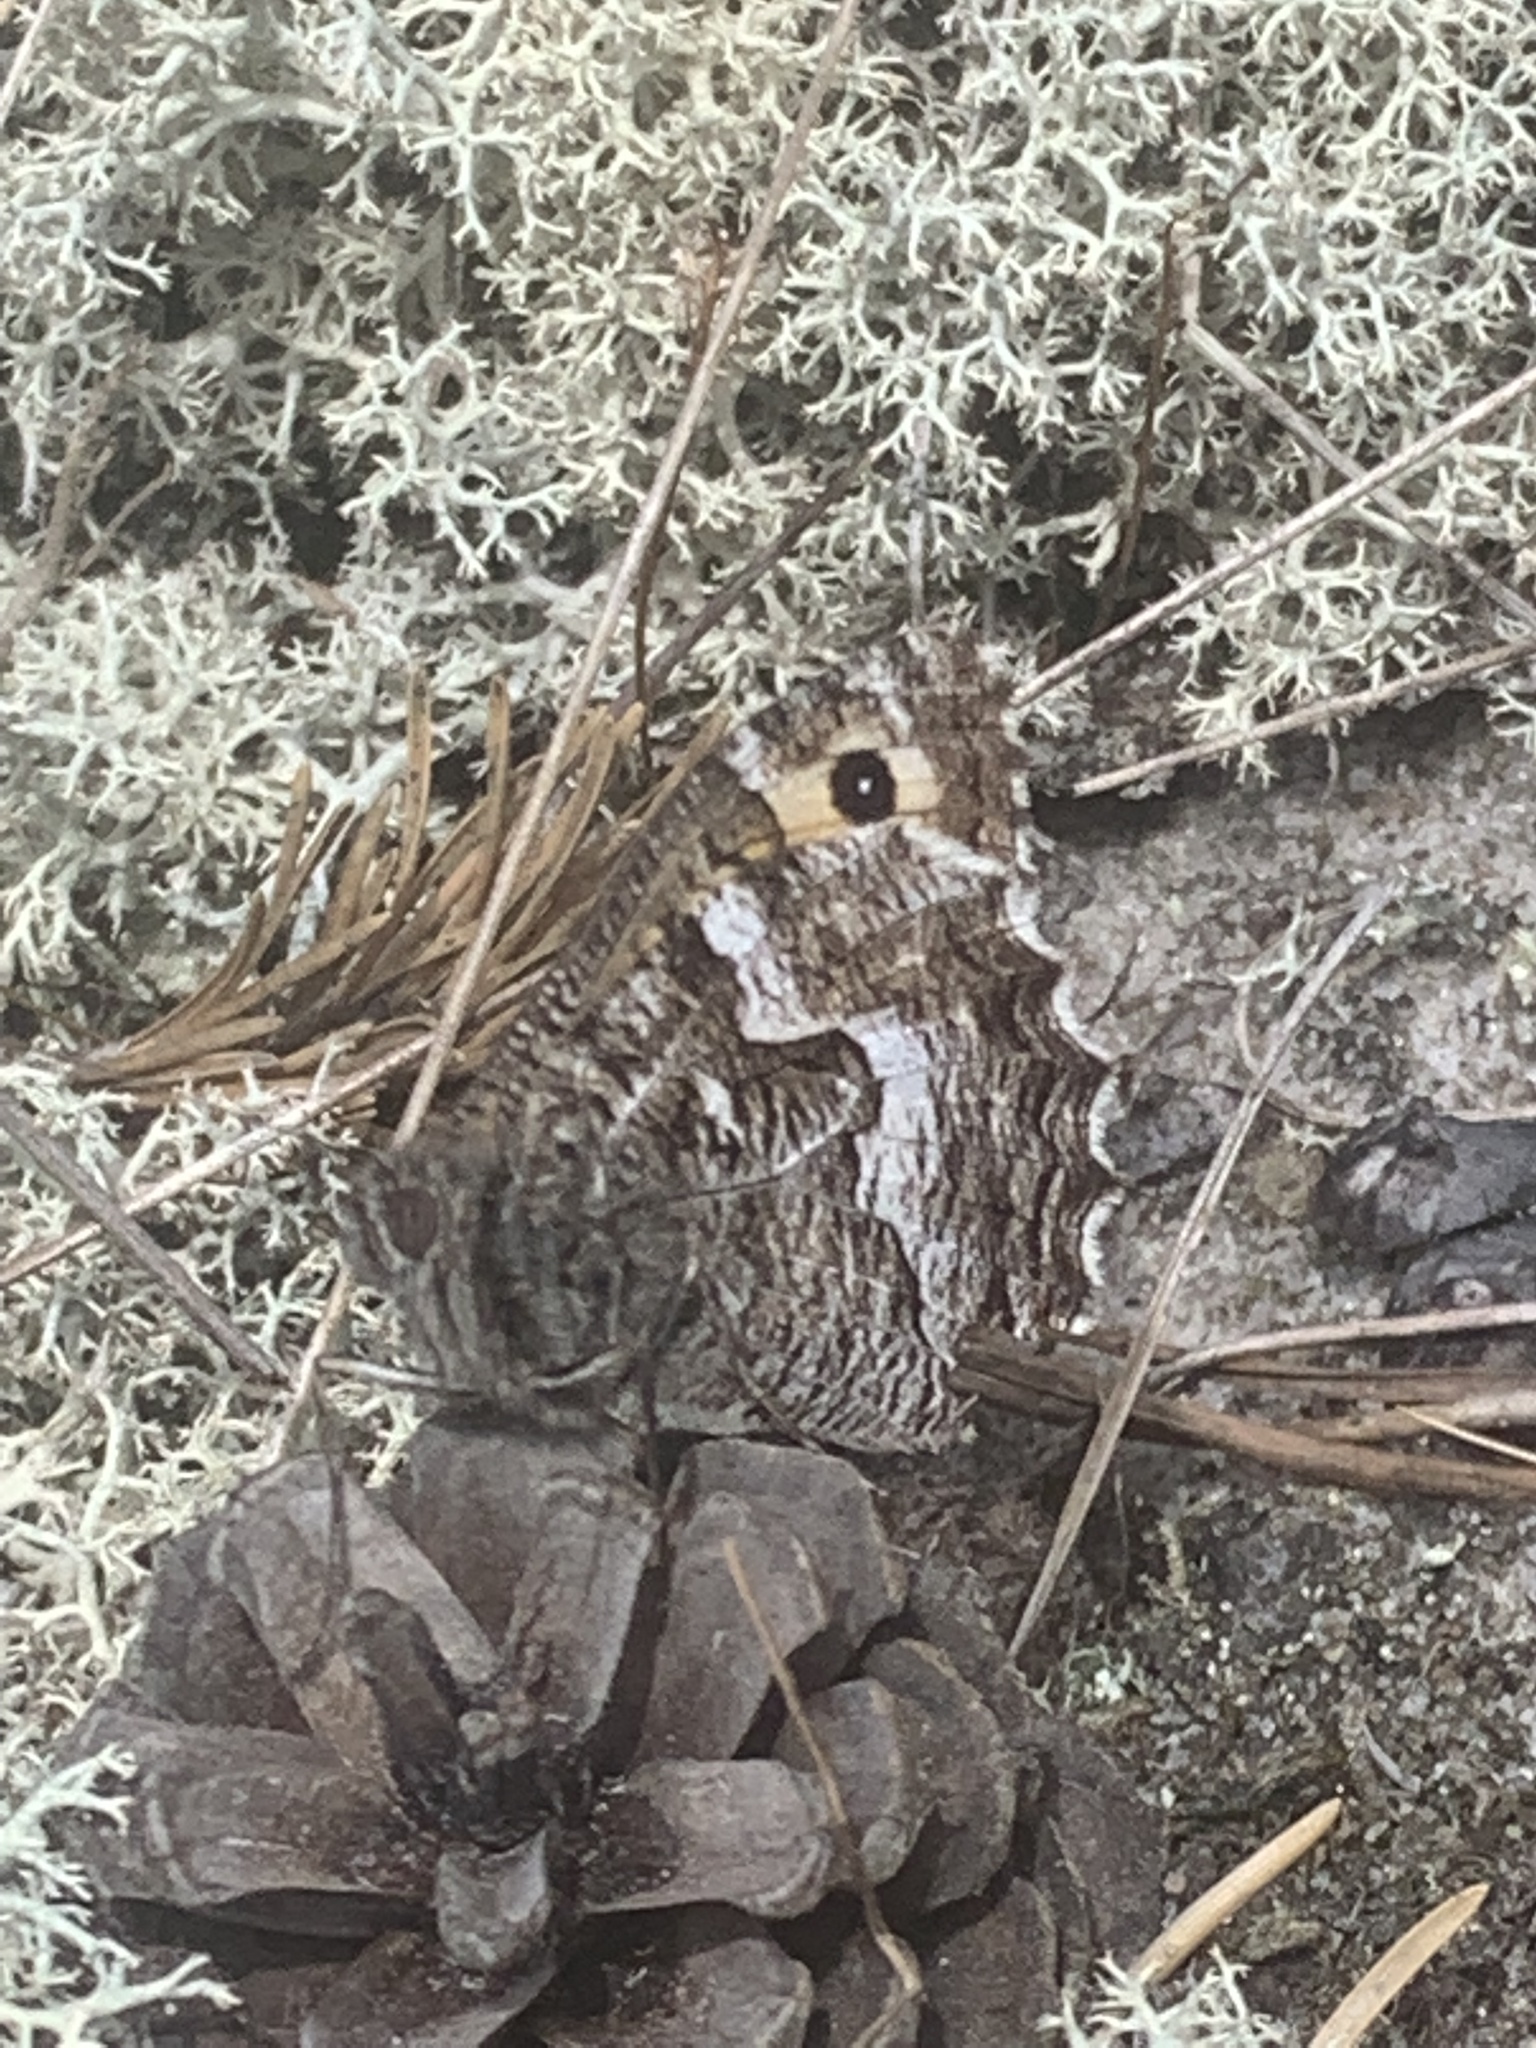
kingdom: Animalia
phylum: Arthropoda
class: Insecta
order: Lepidoptera
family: Nymphalidae
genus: Hipparchia
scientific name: Hipparchia semele
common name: Grayling
